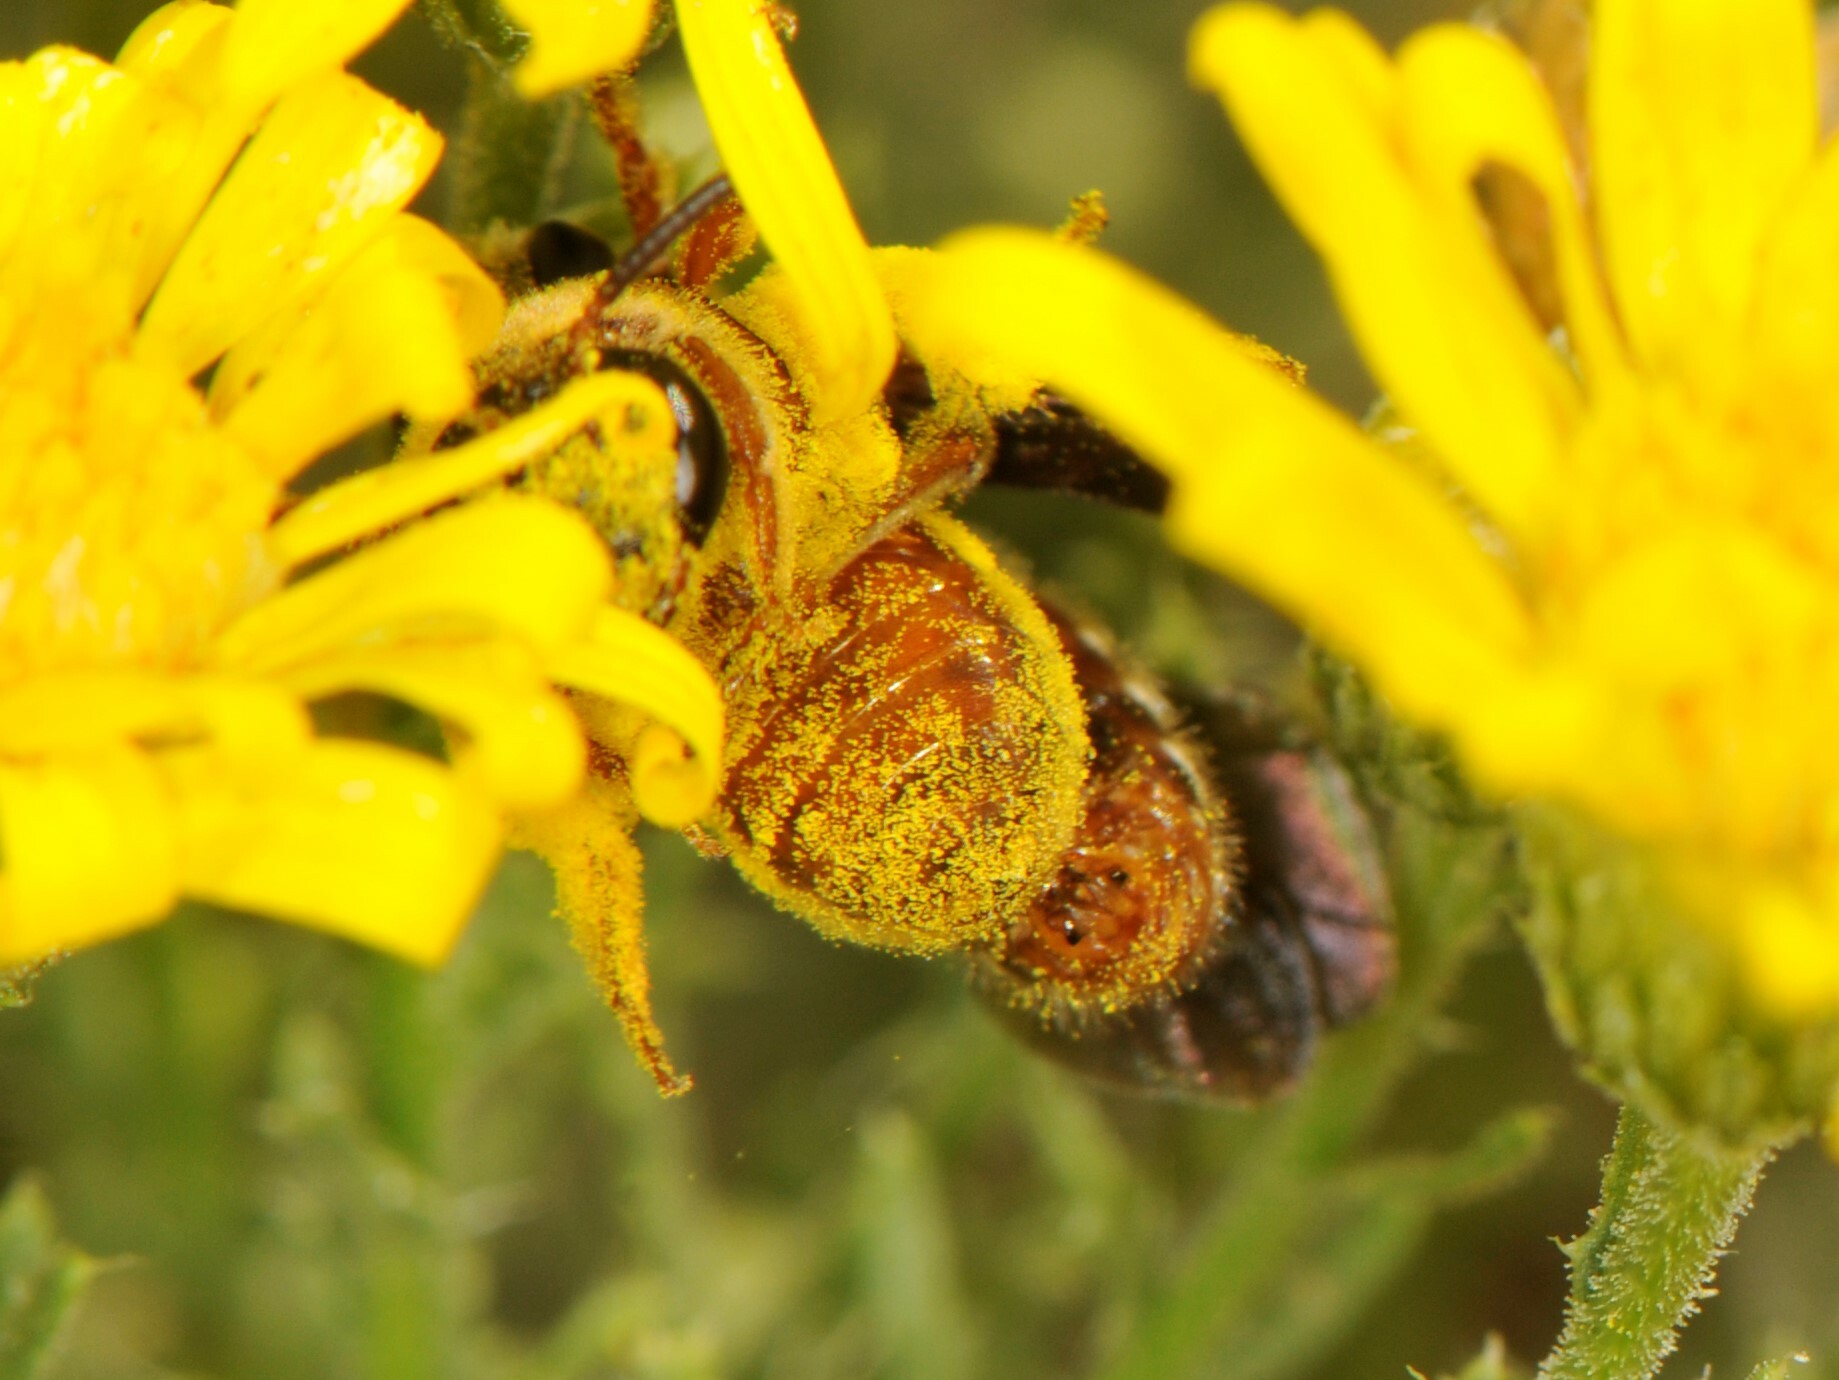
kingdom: Animalia
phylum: Arthropoda
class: Insecta
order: Hymenoptera
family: Halictidae
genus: Dieunomia
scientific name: Dieunomia nevadensis
